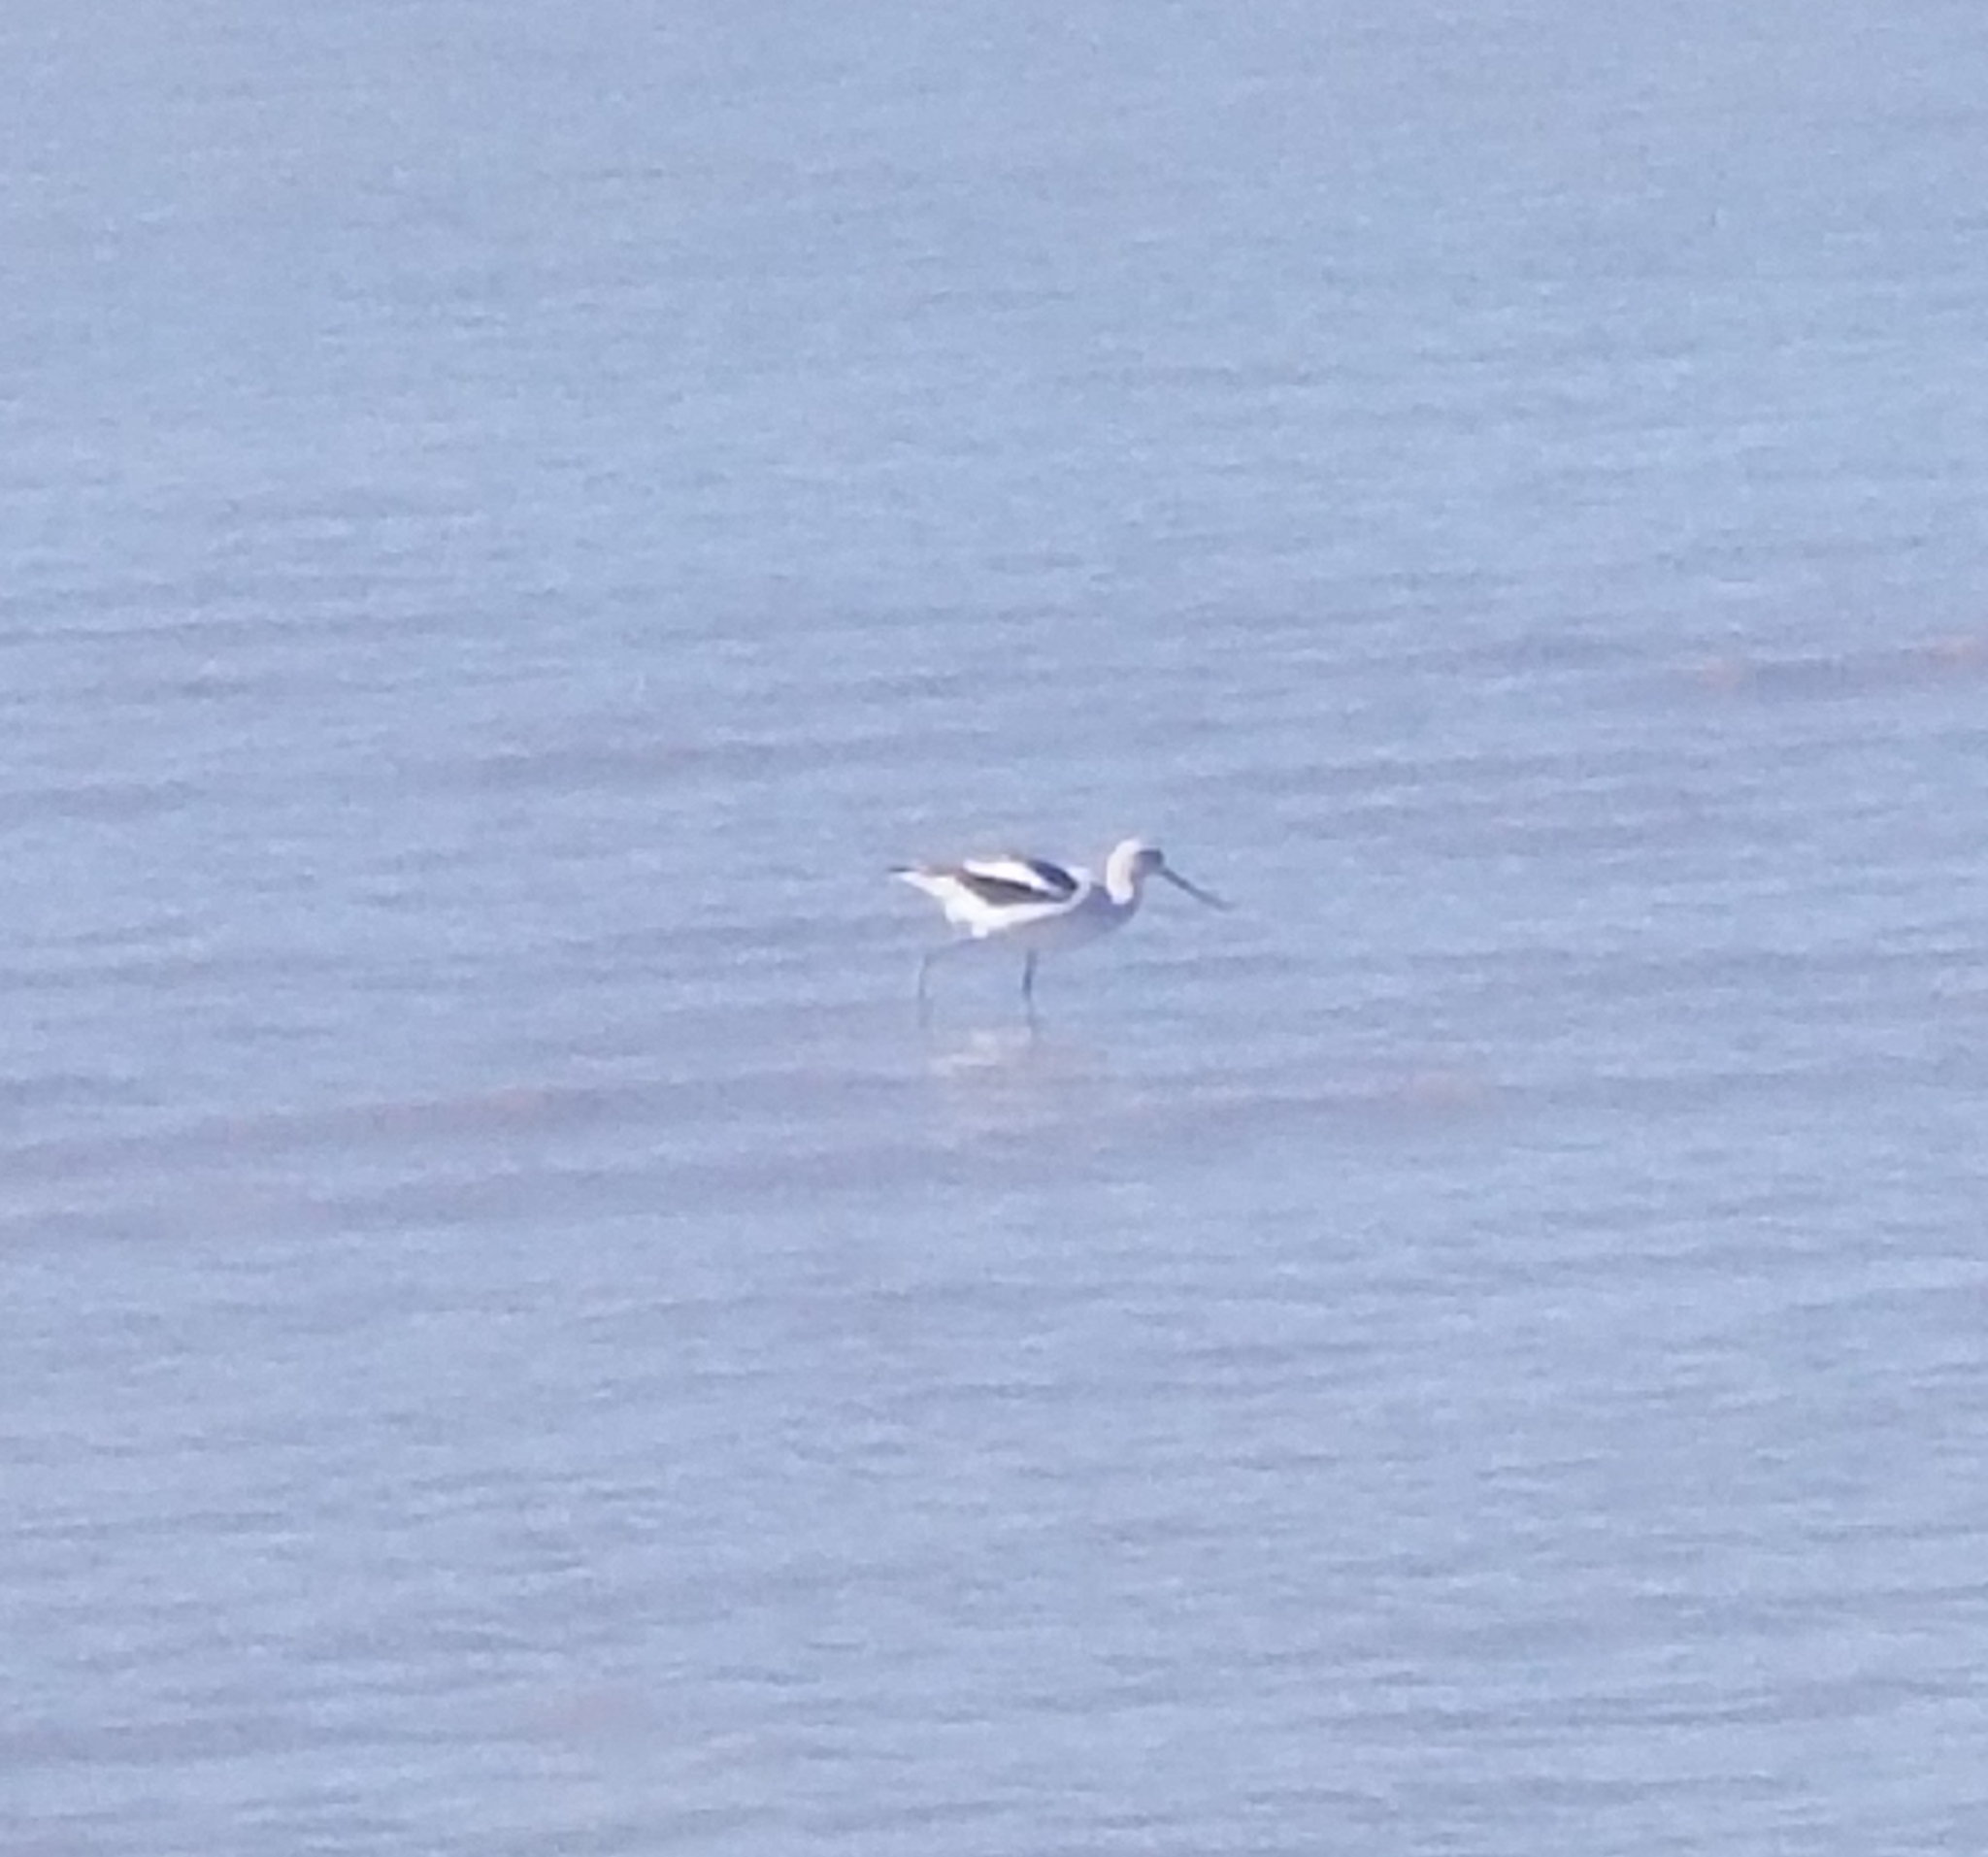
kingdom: Animalia
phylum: Chordata
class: Aves
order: Charadriiformes
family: Recurvirostridae
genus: Recurvirostra
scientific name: Recurvirostra americana
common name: American avocet
